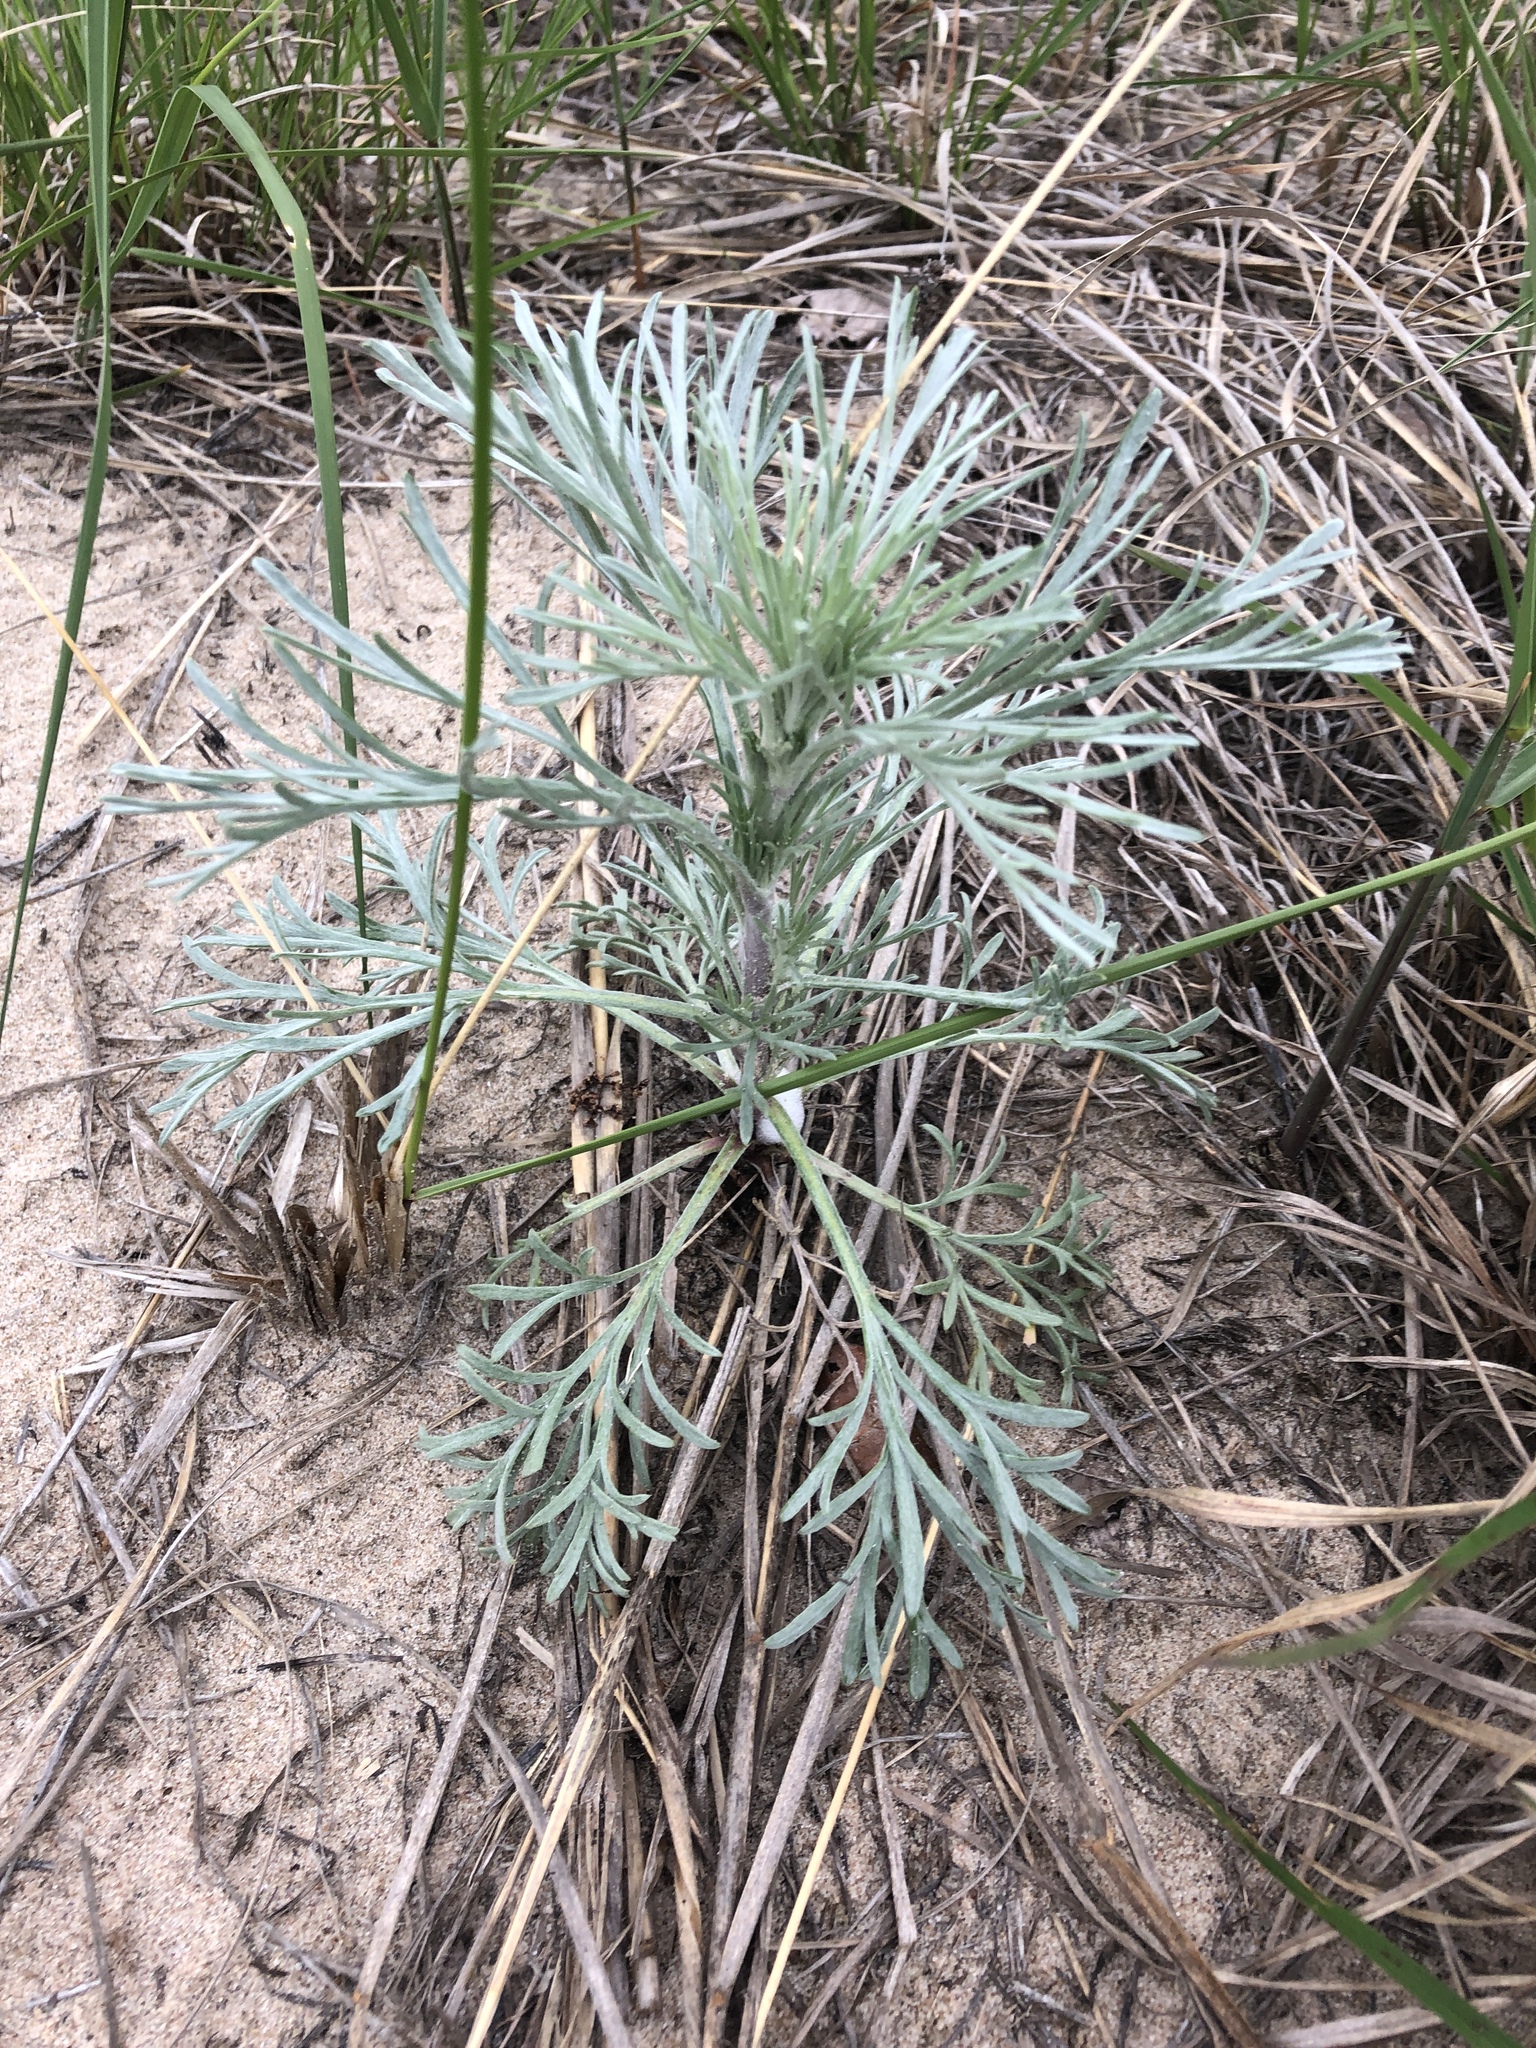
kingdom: Plantae
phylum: Tracheophyta
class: Magnoliopsida
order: Asterales
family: Asteraceae
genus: Artemisia
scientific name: Artemisia campestris
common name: Field wormwood
